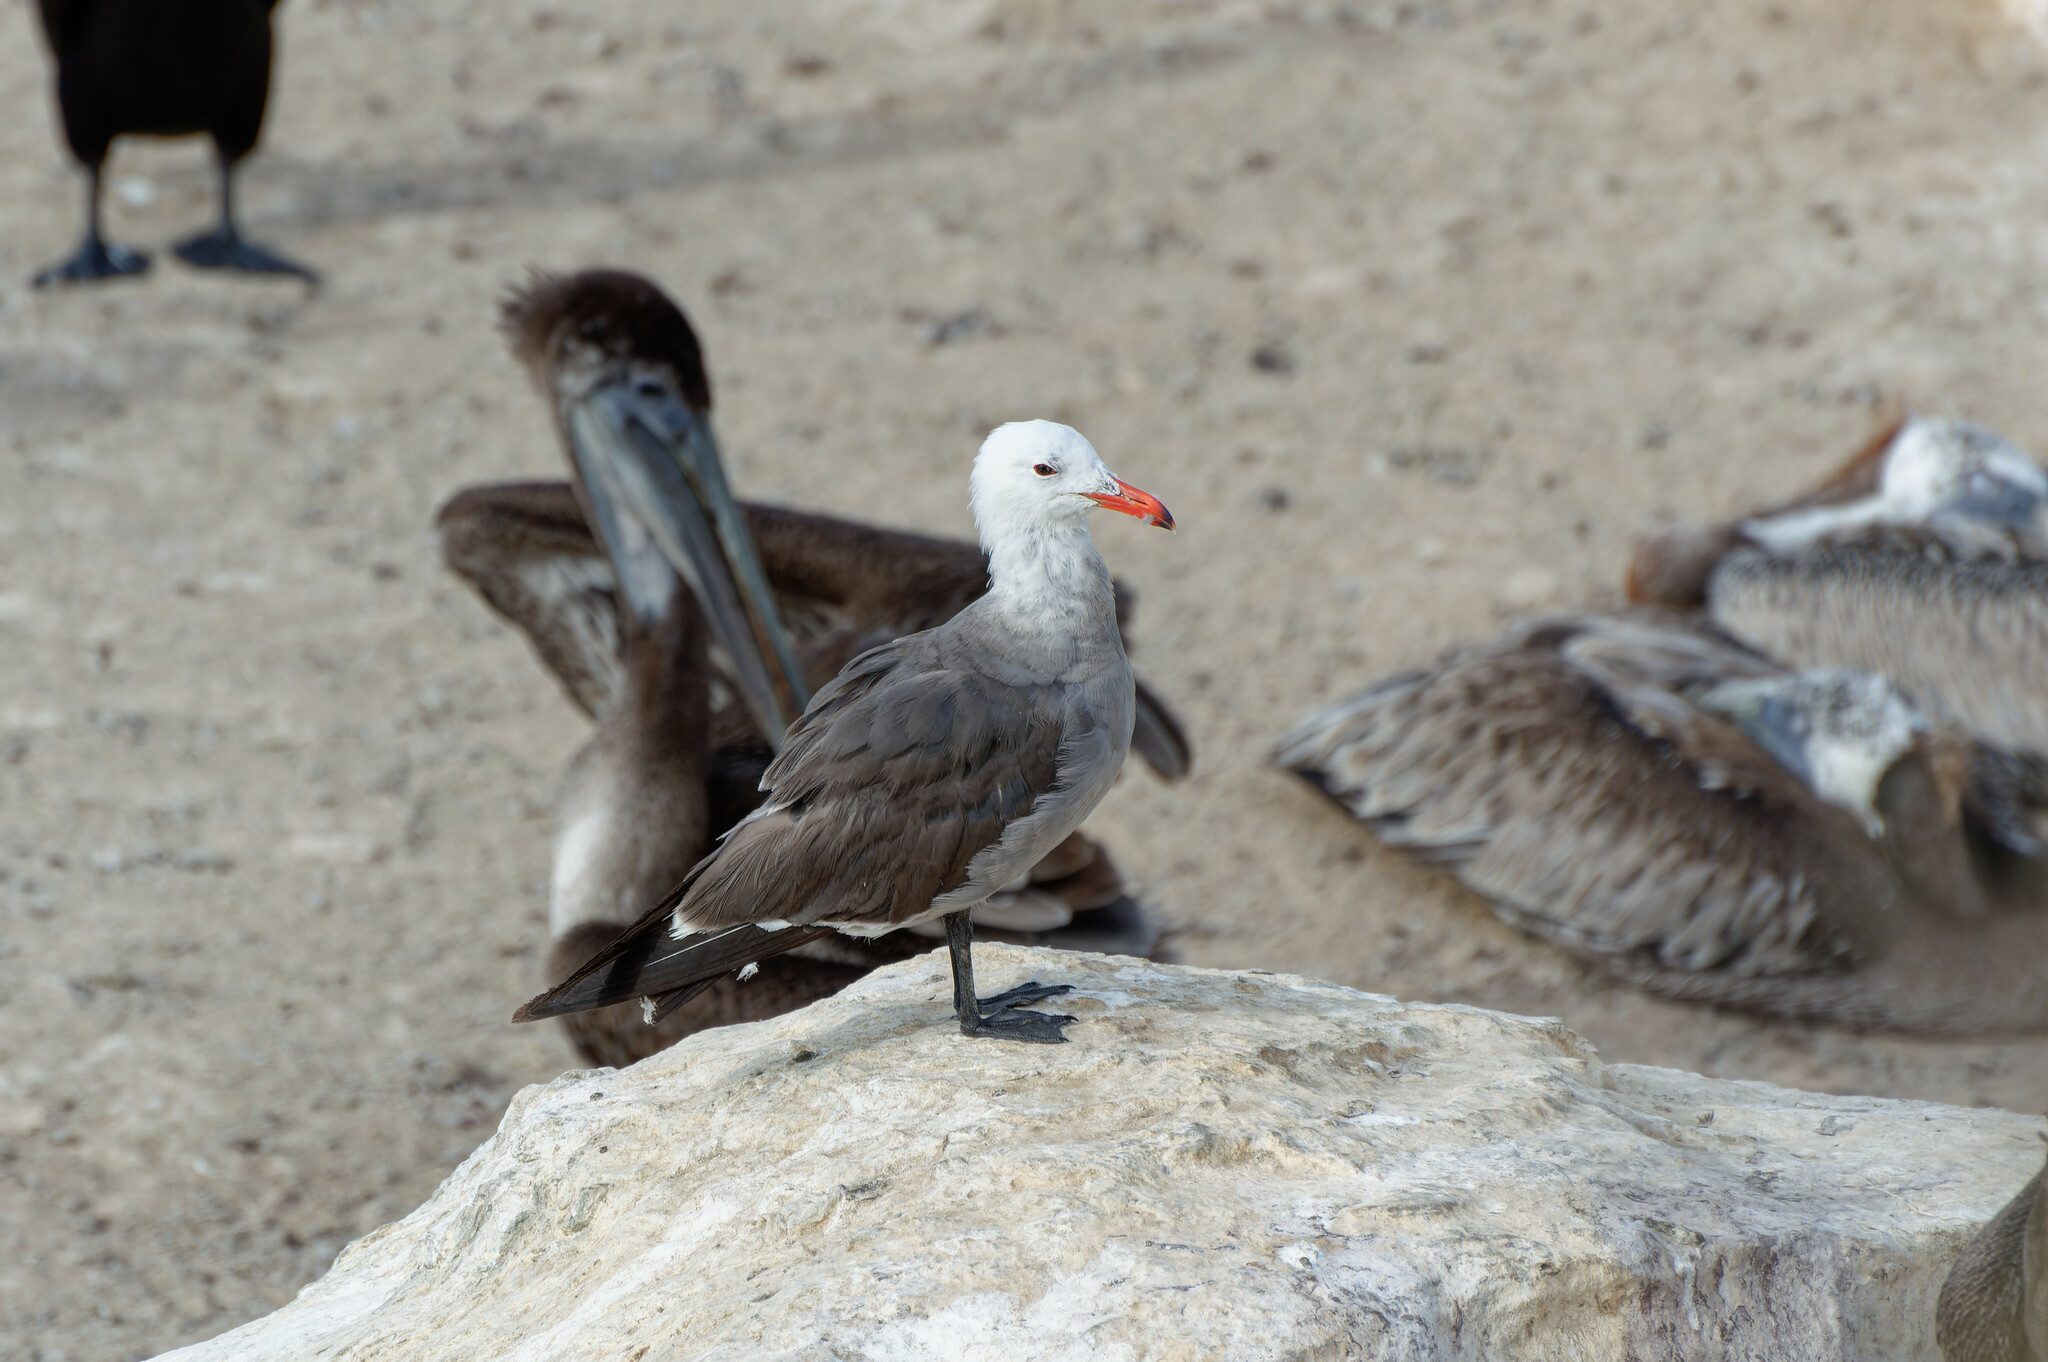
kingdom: Animalia
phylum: Chordata
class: Aves
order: Charadriiformes
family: Laridae
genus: Larus
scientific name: Larus heermanni
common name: Heermann's gull
